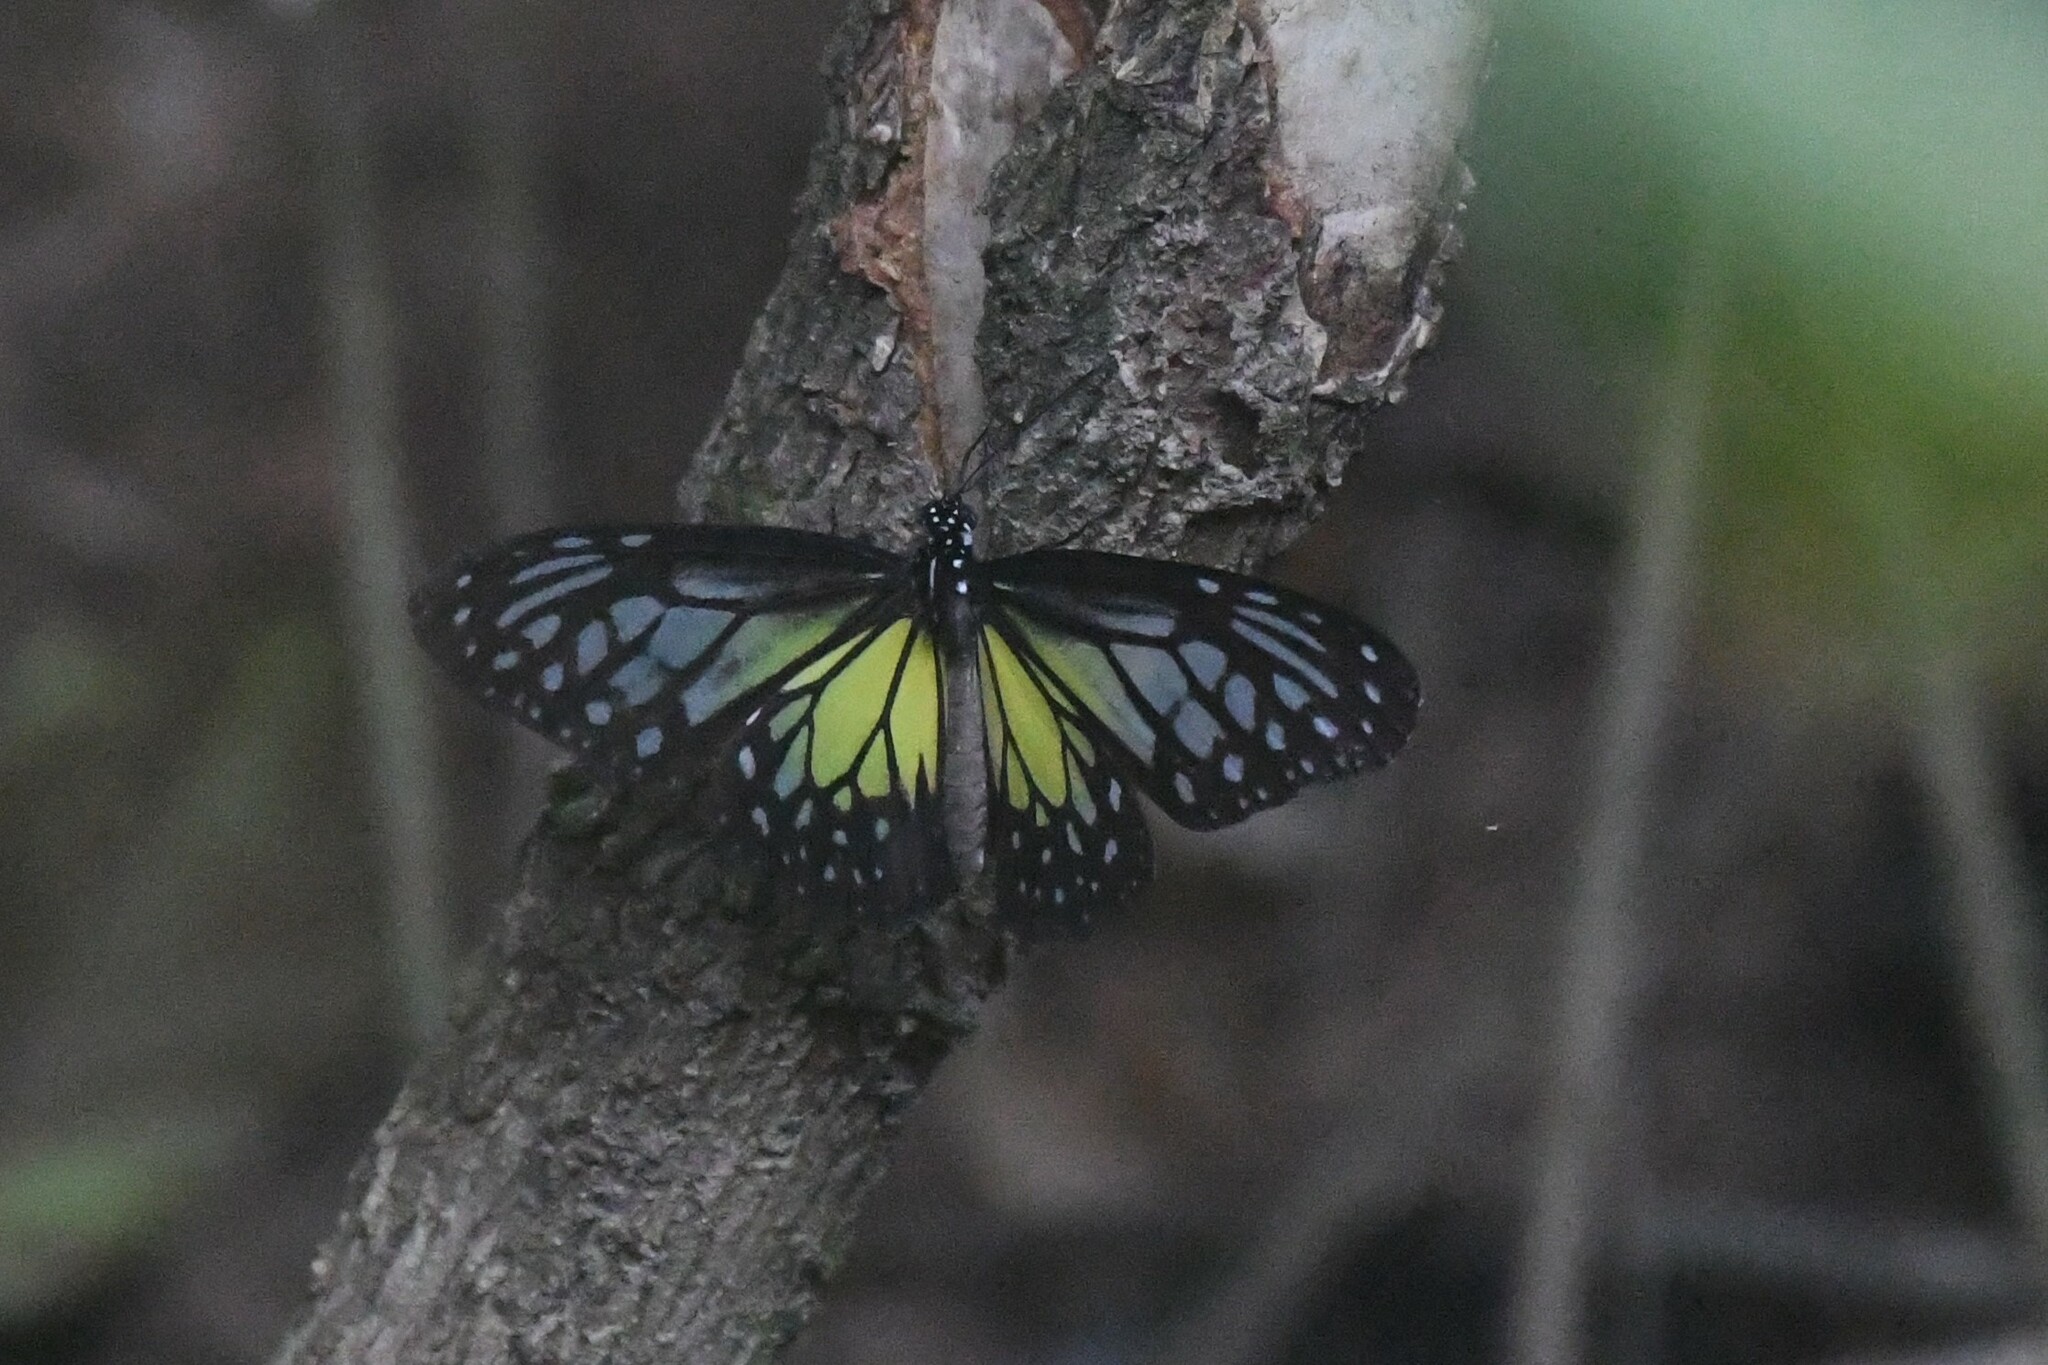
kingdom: Animalia
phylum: Arthropoda
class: Insecta
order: Lepidoptera
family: Nymphalidae
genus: Parantica
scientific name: Parantica aspasia
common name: Yellow glassy tiger
